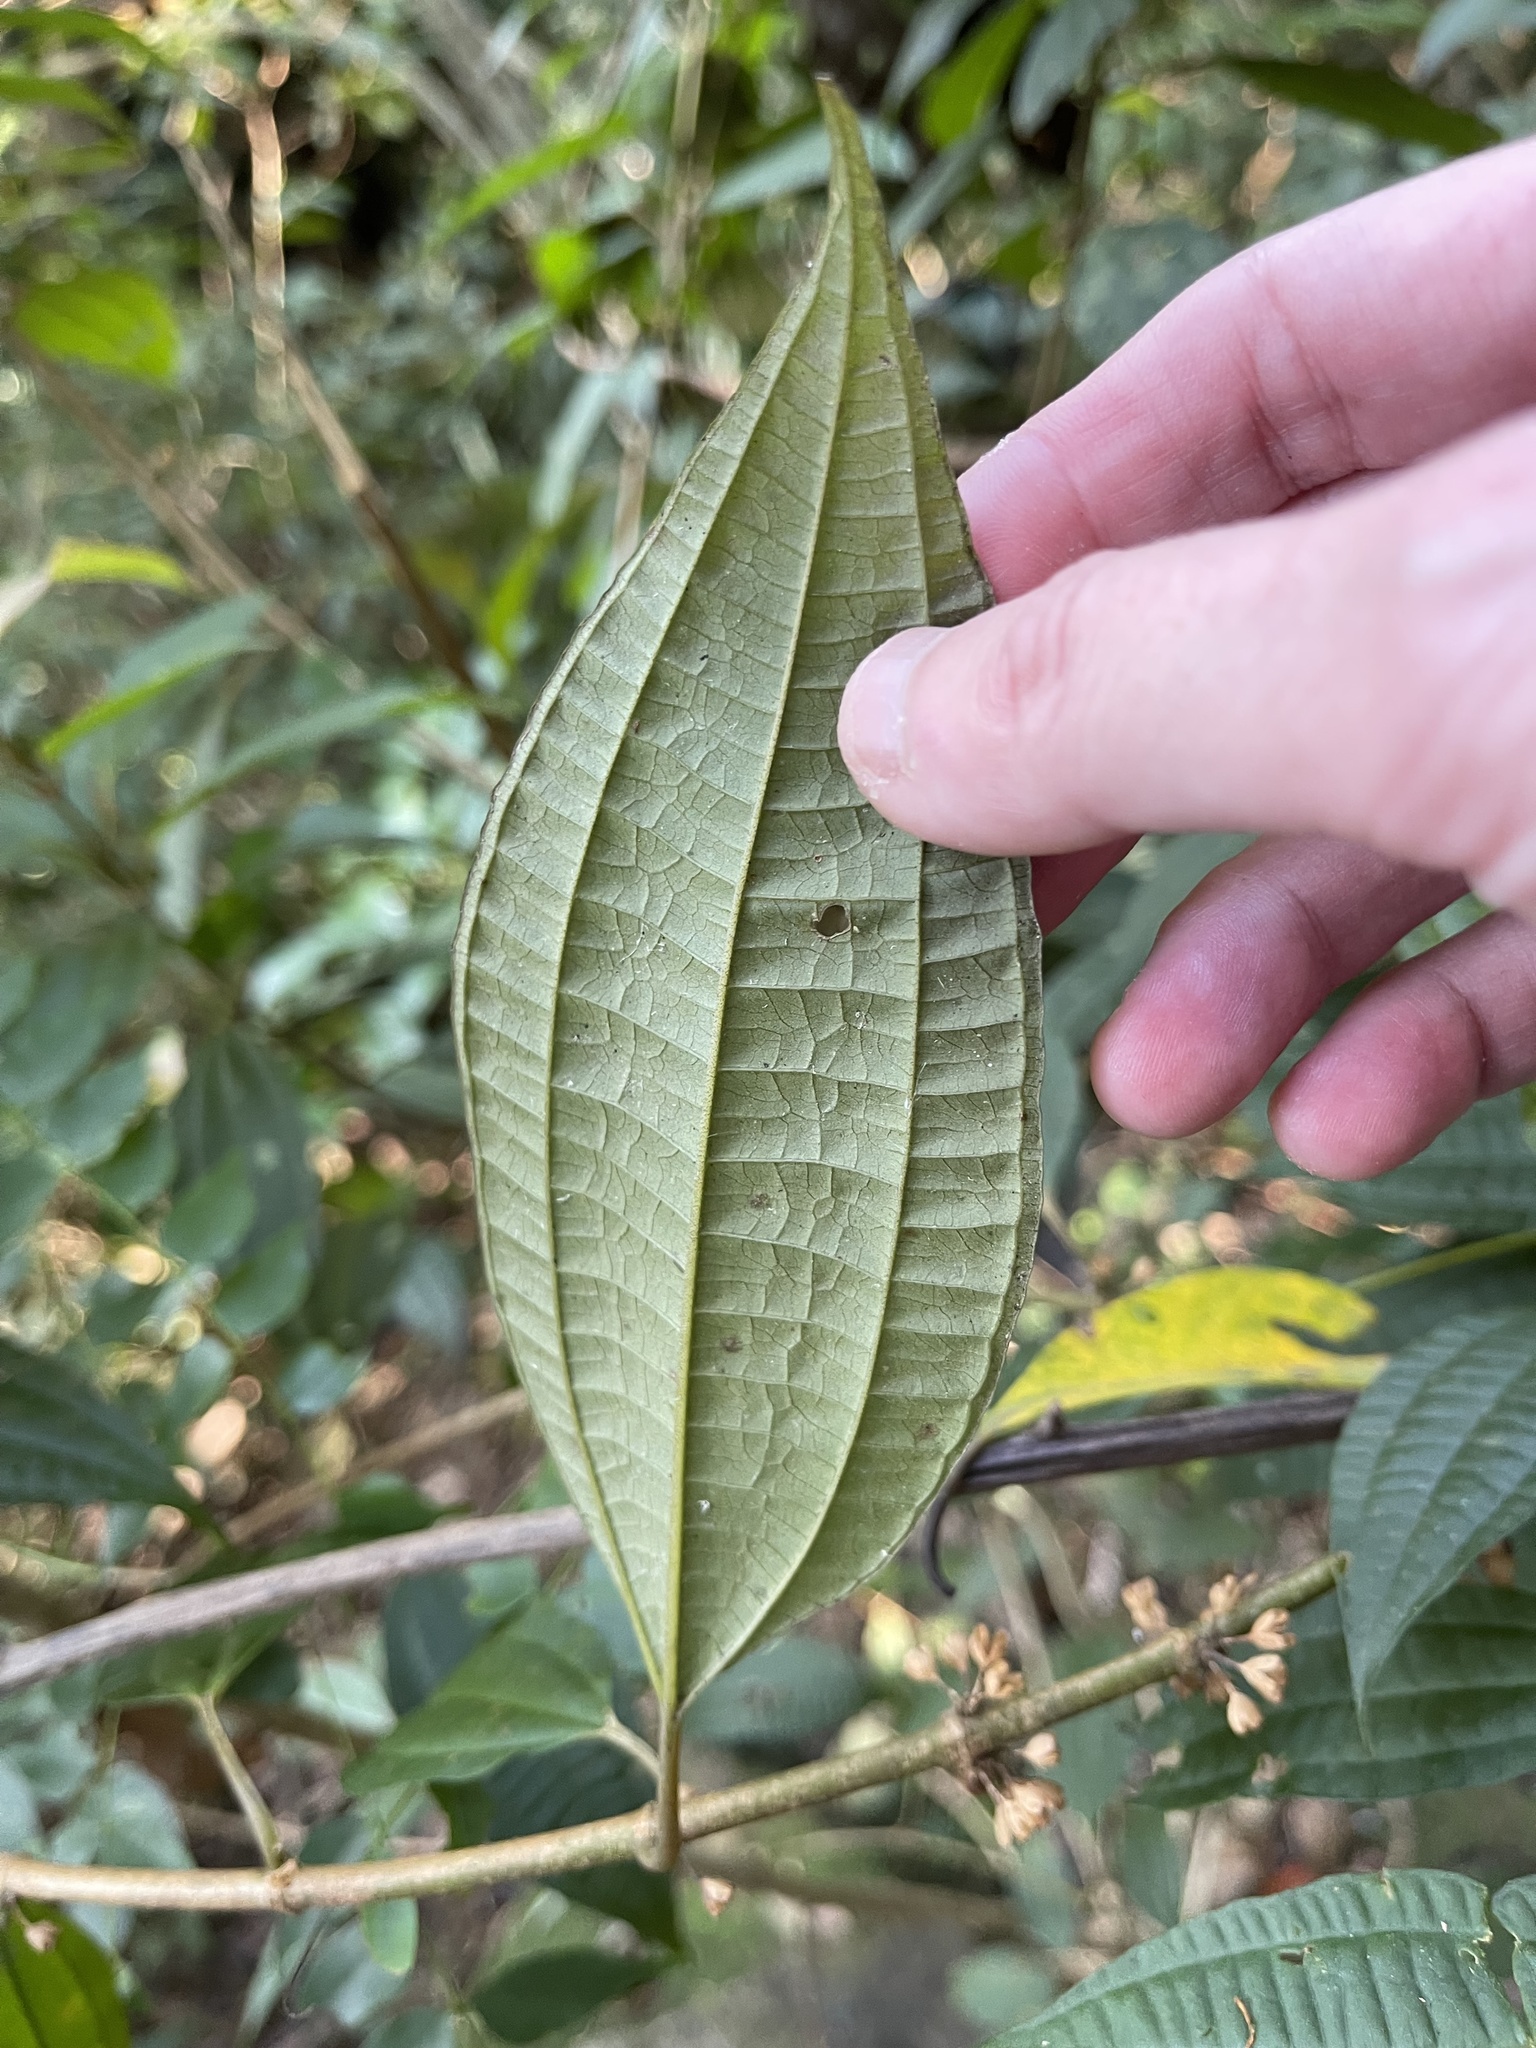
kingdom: Plantae
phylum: Tracheophyta
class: Magnoliopsida
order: Myrtales
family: Melastomataceae
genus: Blastus
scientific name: Blastus cochinchinensis
